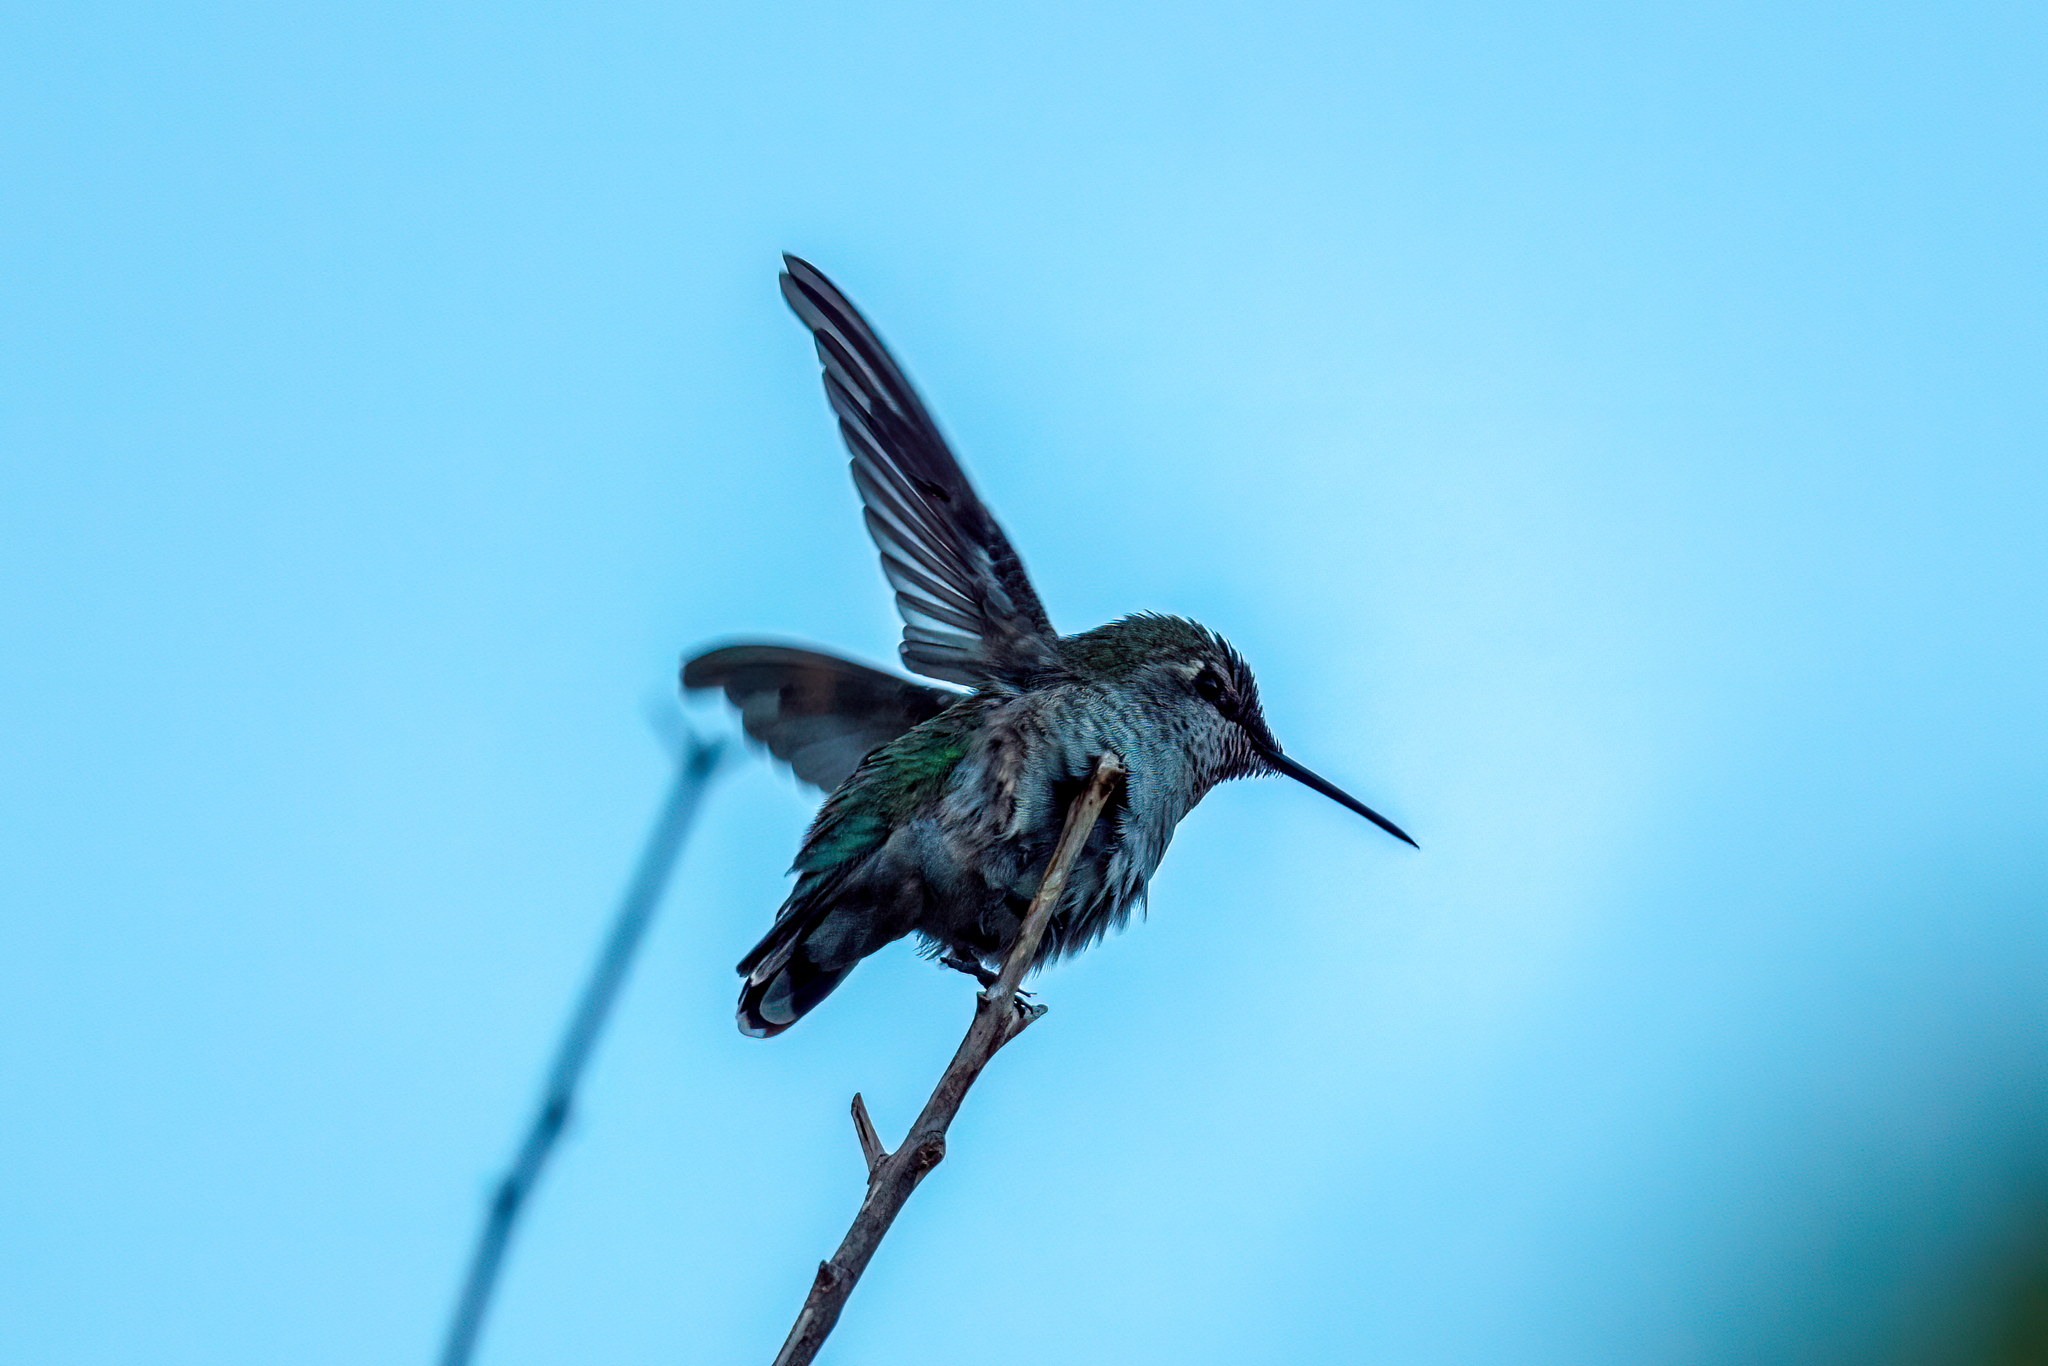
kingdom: Animalia
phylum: Chordata
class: Aves
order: Apodiformes
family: Trochilidae
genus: Calypte
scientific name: Calypte anna
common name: Anna's hummingbird
